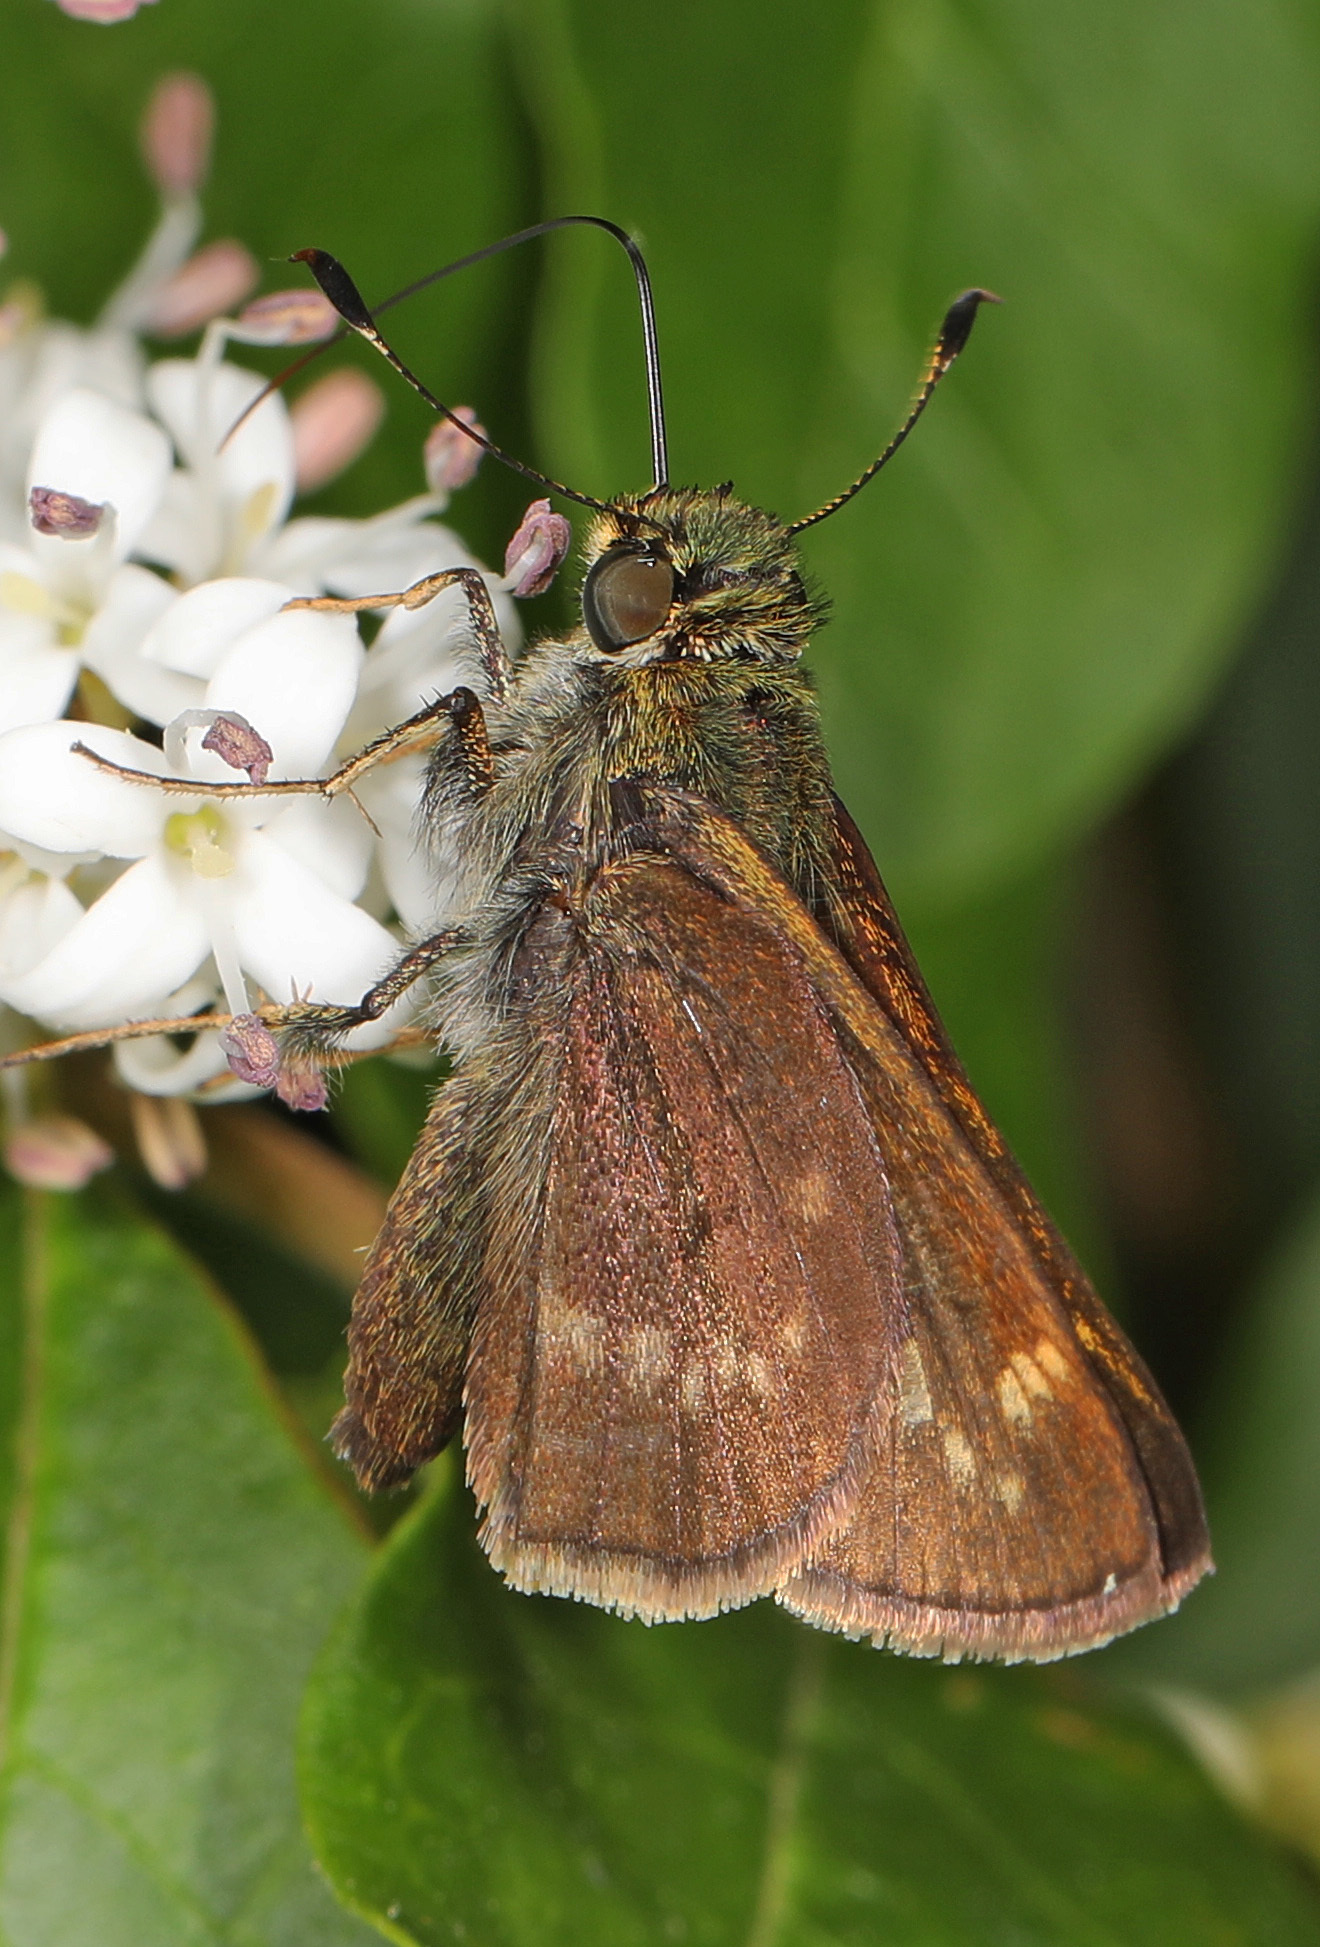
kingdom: Animalia
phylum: Arthropoda
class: Insecta
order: Lepidoptera
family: Hesperiidae
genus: Vernia
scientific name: Vernia verna
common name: Little glassywing
